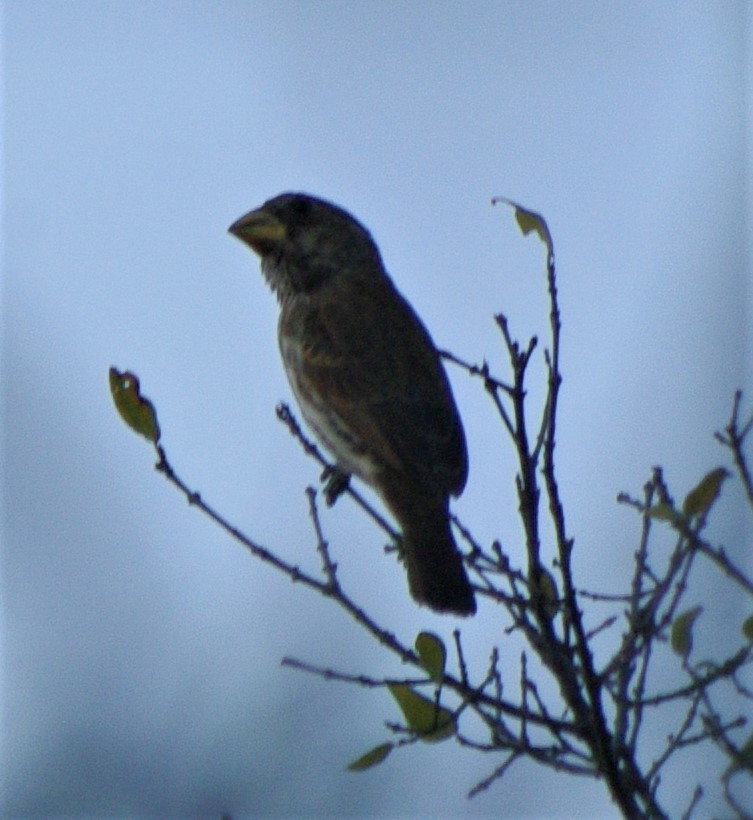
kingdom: Animalia
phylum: Chordata
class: Aves
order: Passeriformes
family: Ploceidae
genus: Amblyospiza
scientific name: Amblyospiza albifrons
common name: Thick-billed weaver
